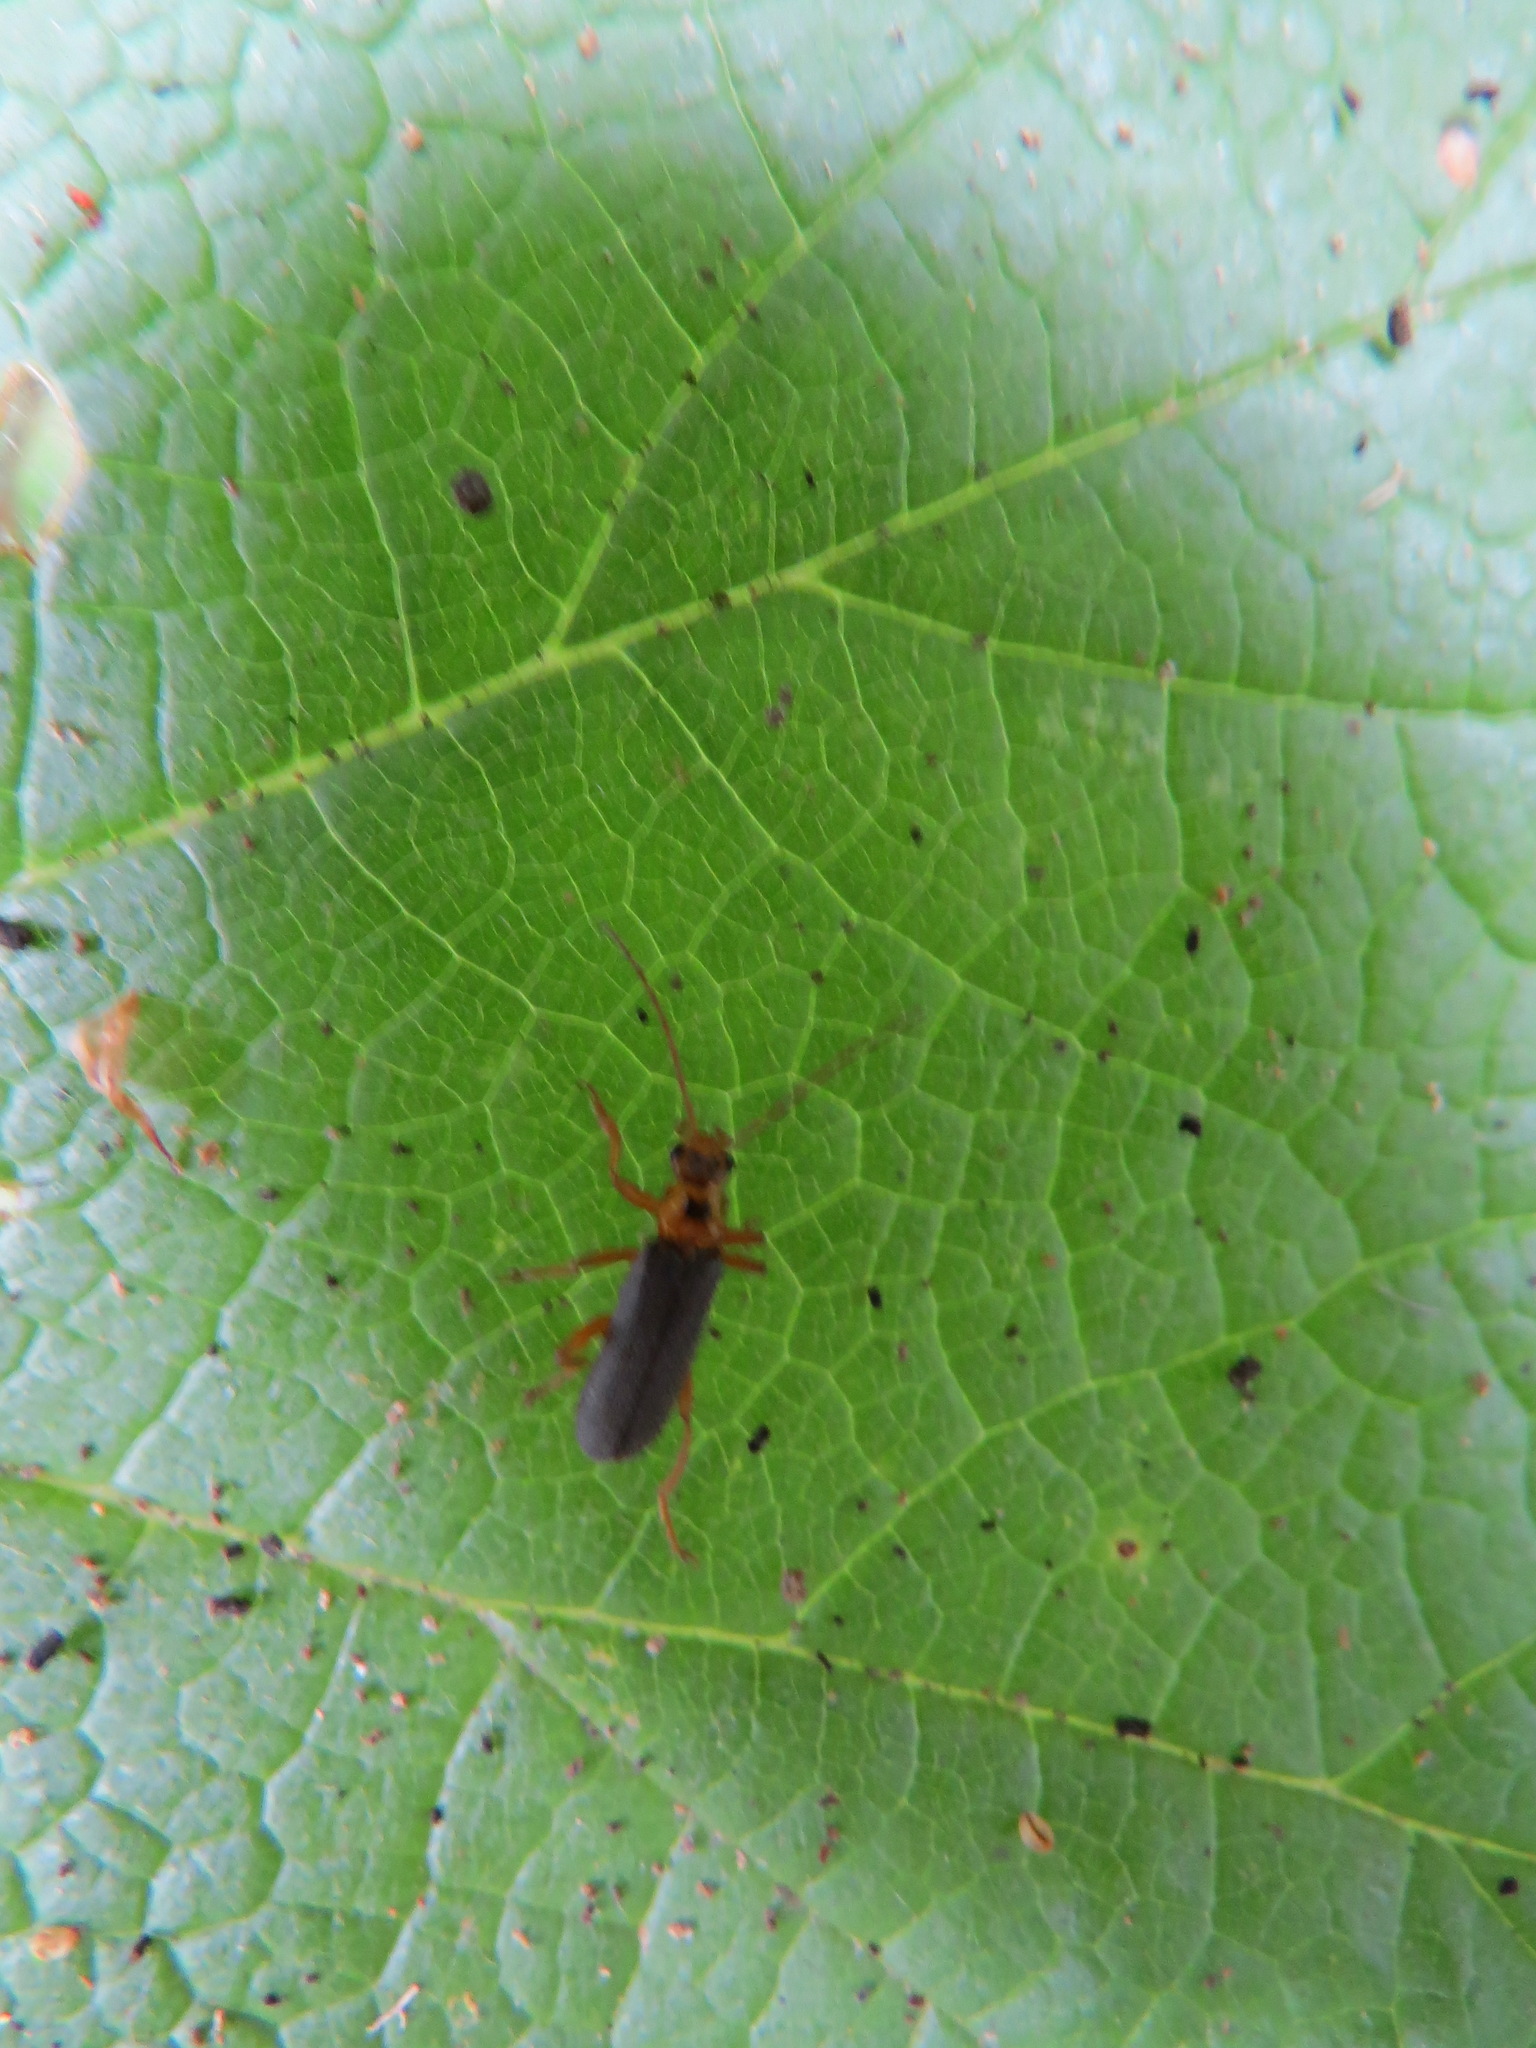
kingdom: Animalia
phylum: Arthropoda
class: Insecta
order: Coleoptera
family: Cantharidae
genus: Cultellunguis
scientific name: Cultellunguis americanus
